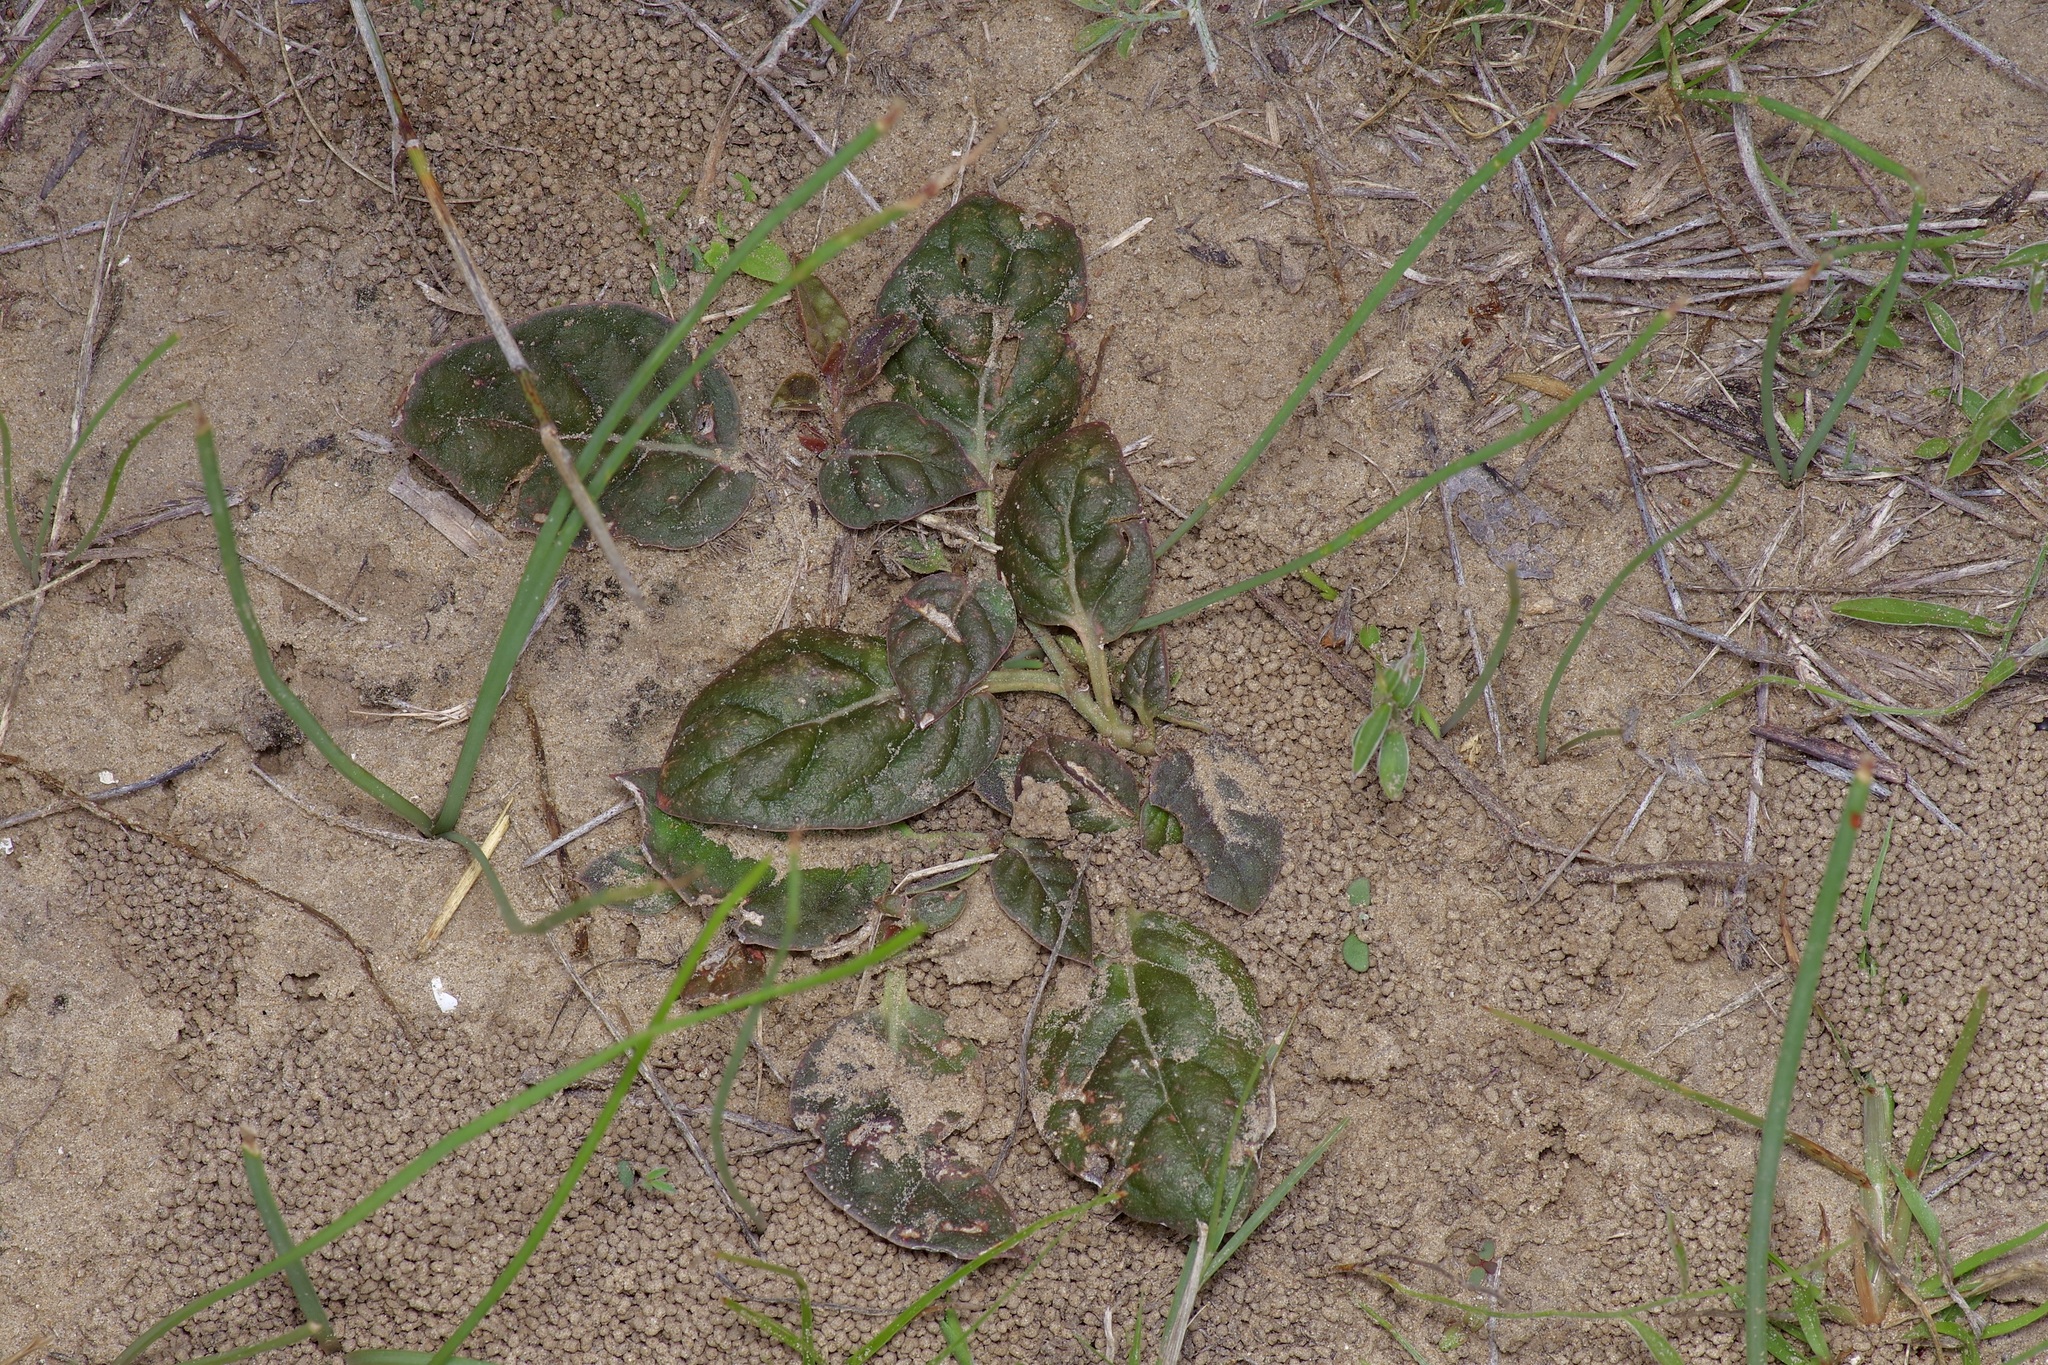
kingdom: Plantae
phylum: Tracheophyta
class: Magnoliopsida
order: Caryophyllales
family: Nyctaginaceae
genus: Acleisanthes
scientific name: Acleisanthes anisophylla
